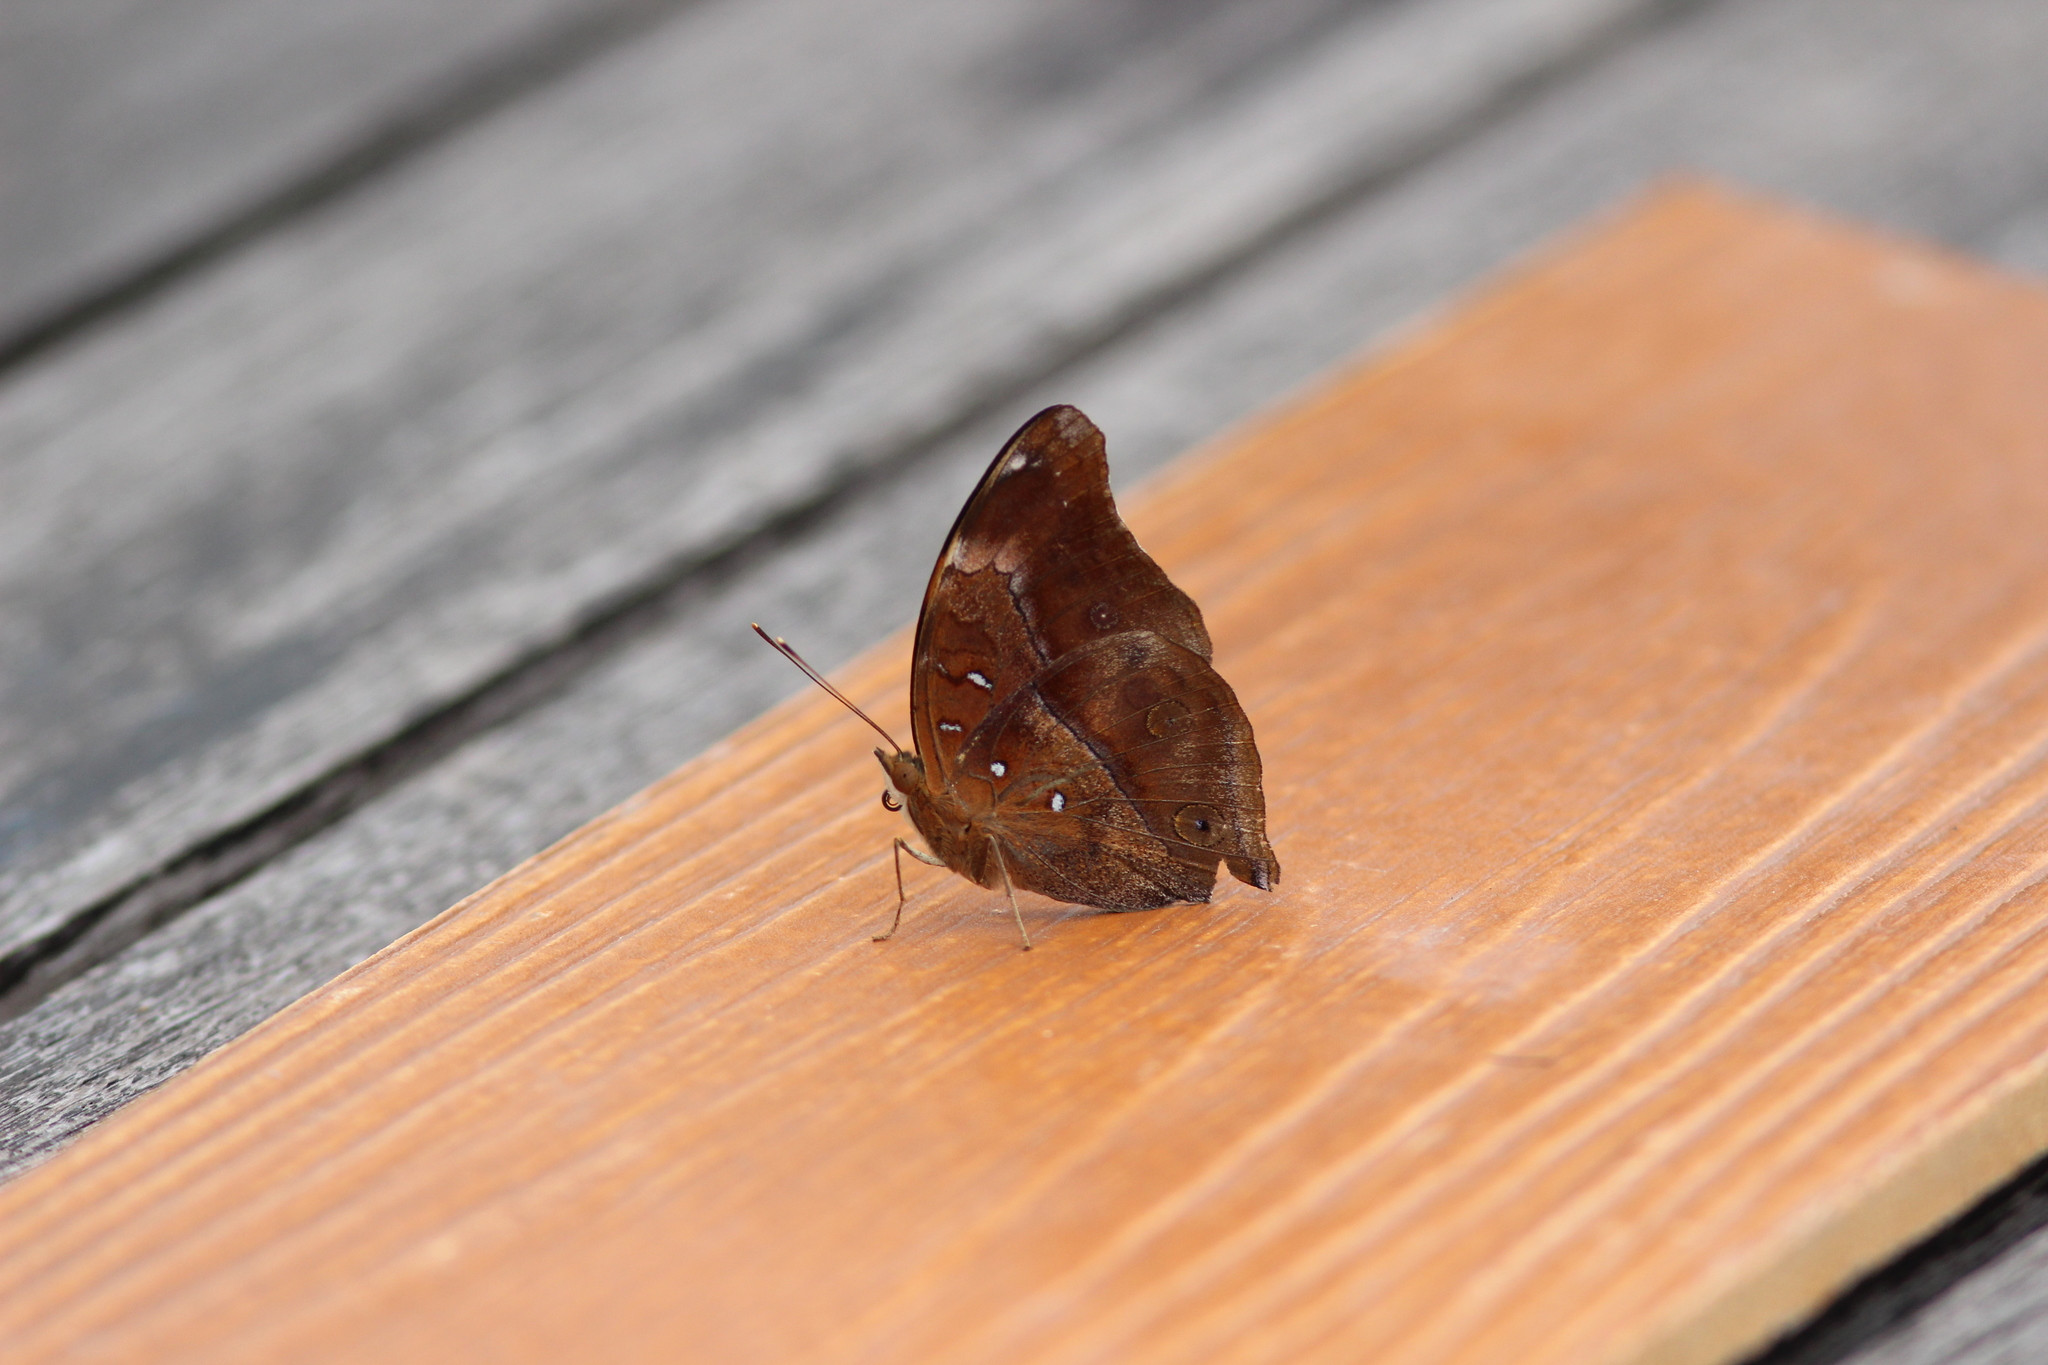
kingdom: Animalia
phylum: Arthropoda
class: Insecta
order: Lepidoptera
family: Nymphalidae
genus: Doleschallia
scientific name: Doleschallia bisaltide
